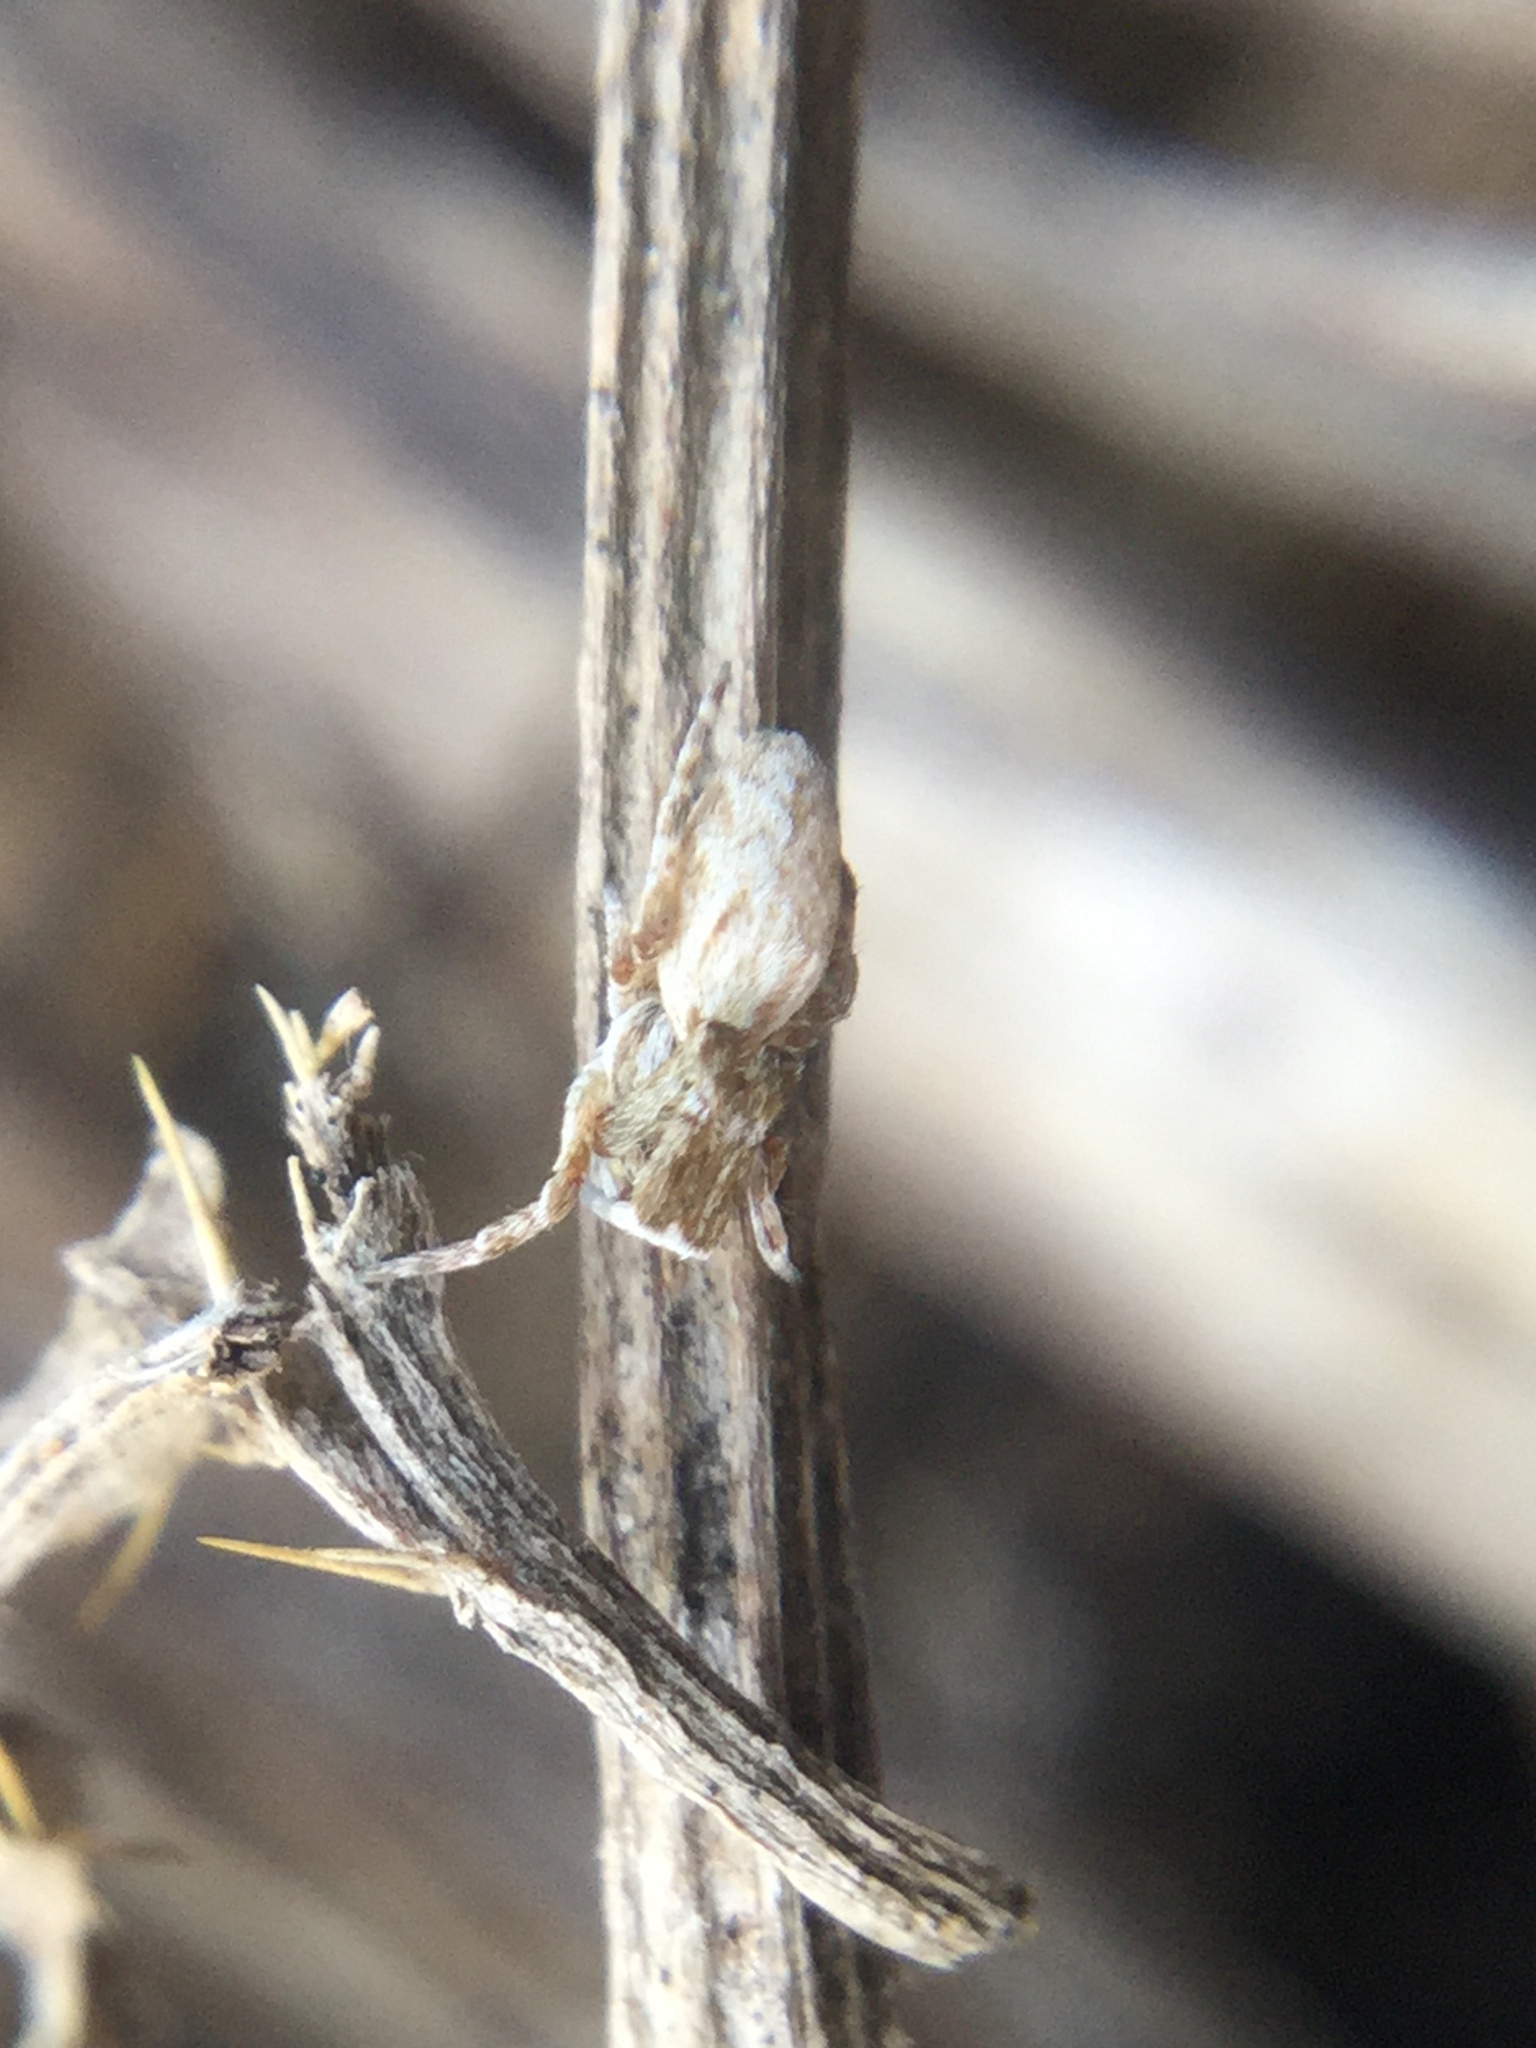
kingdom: Animalia
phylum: Arthropoda
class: Arachnida
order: Araneae
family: Uloboridae
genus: Uloborus
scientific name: Uloborus glomosus
